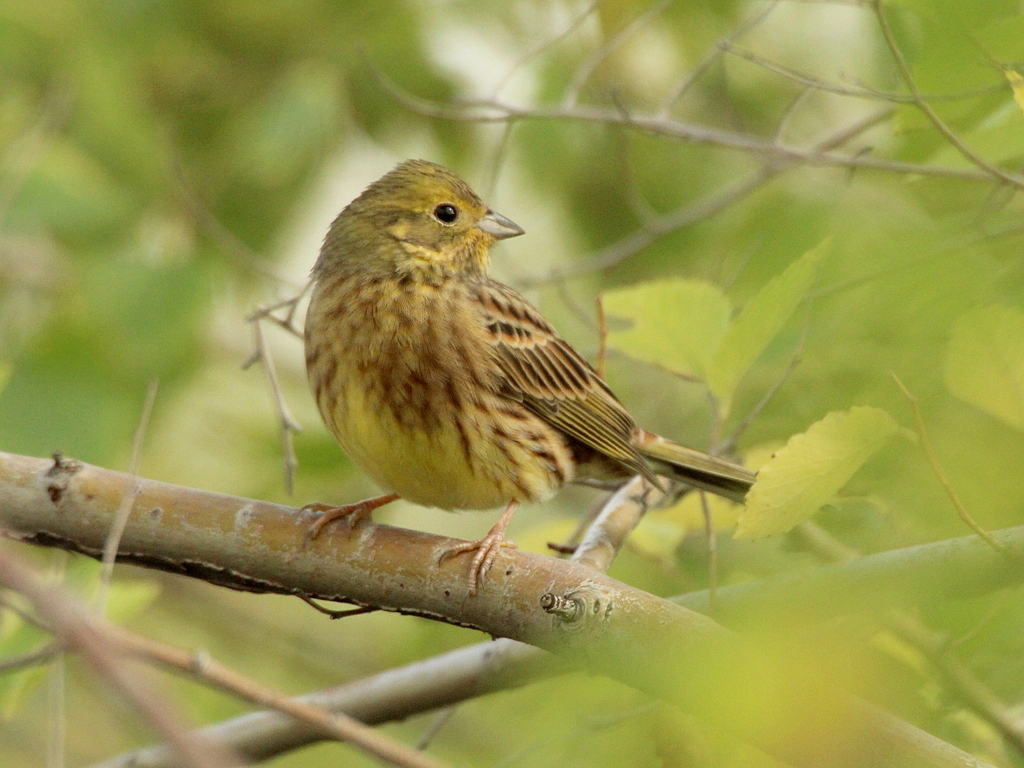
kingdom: Animalia
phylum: Chordata
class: Aves
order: Passeriformes
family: Emberizidae
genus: Emberiza
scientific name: Emberiza citrinella
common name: Yellowhammer
